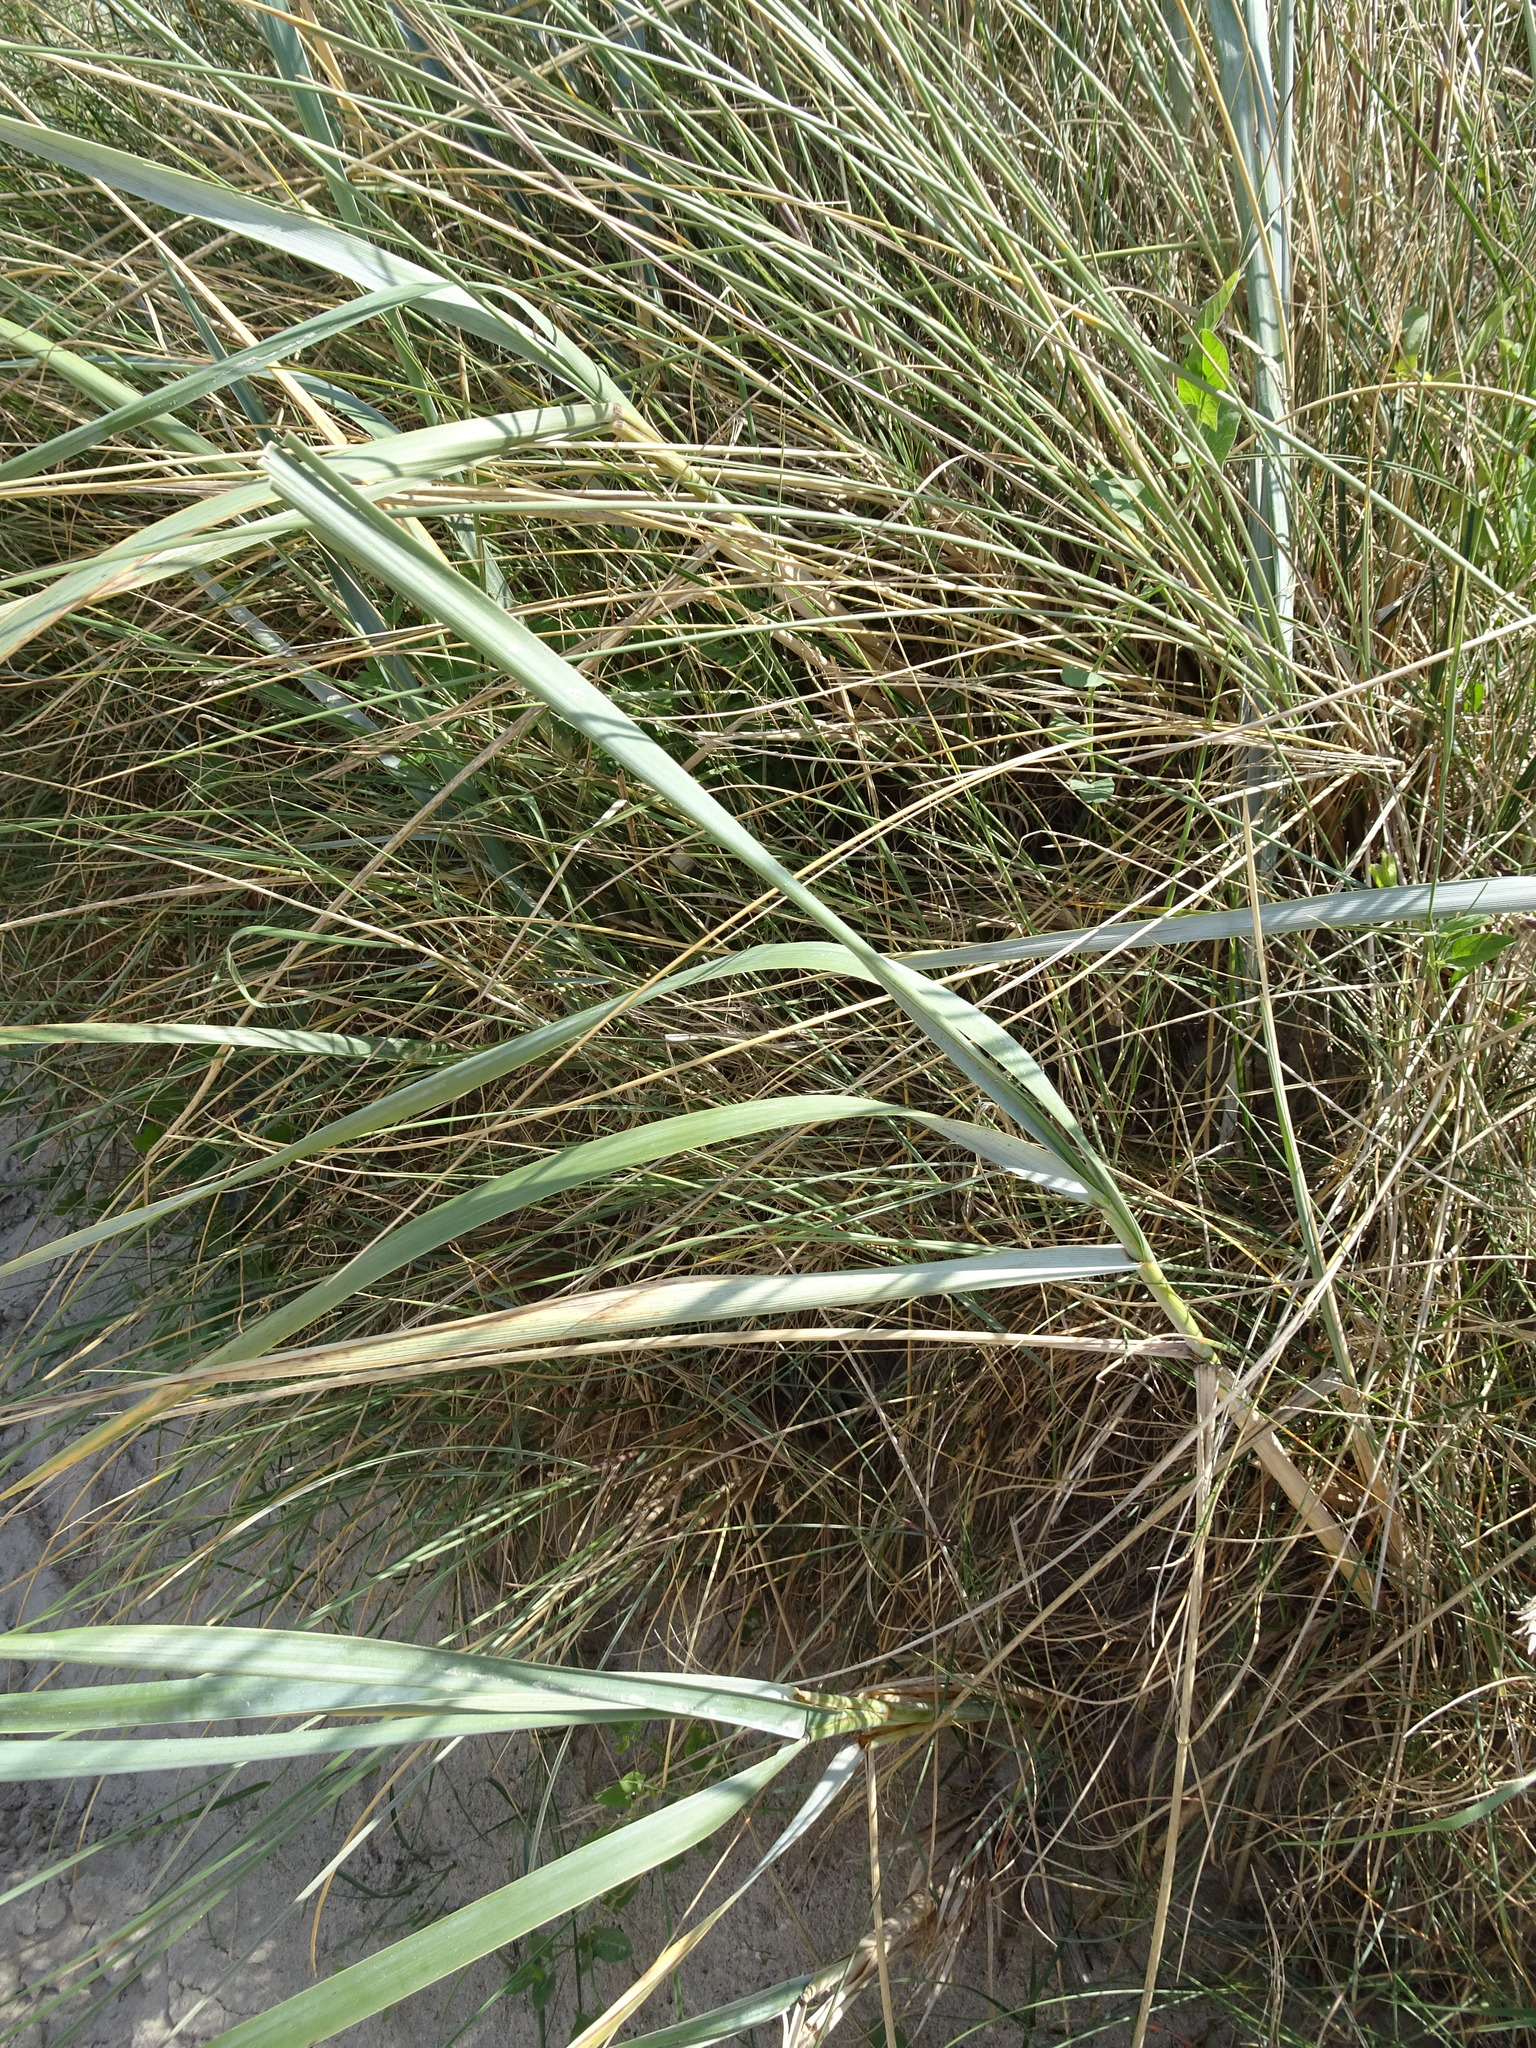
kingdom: Plantae
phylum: Tracheophyta
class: Liliopsida
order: Poales
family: Poaceae
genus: Leymus
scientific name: Leymus arenarius
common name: Lyme-grass
